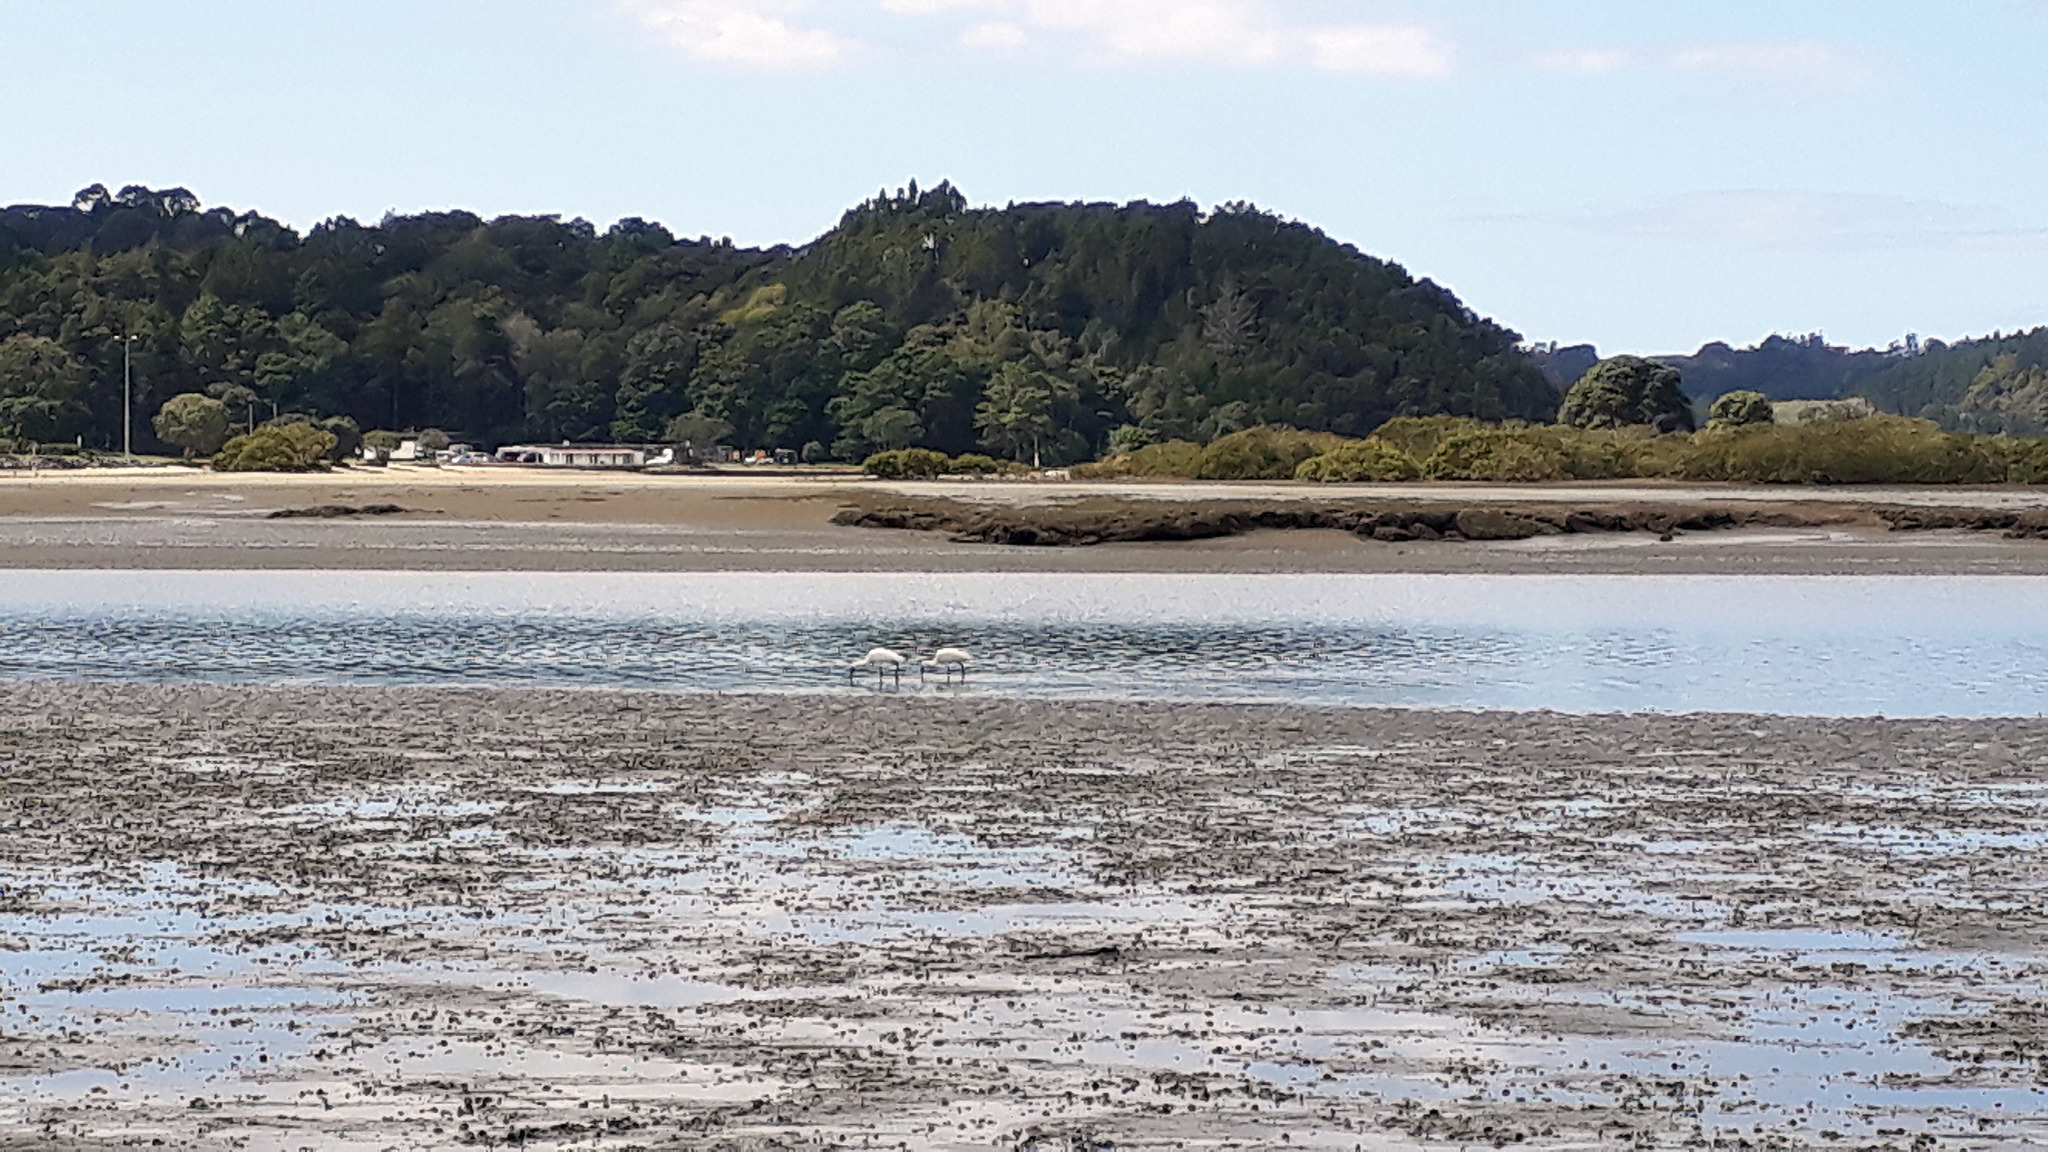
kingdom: Animalia
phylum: Chordata
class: Aves
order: Pelecaniformes
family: Threskiornithidae
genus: Platalea
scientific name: Platalea regia
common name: Royal spoonbill
